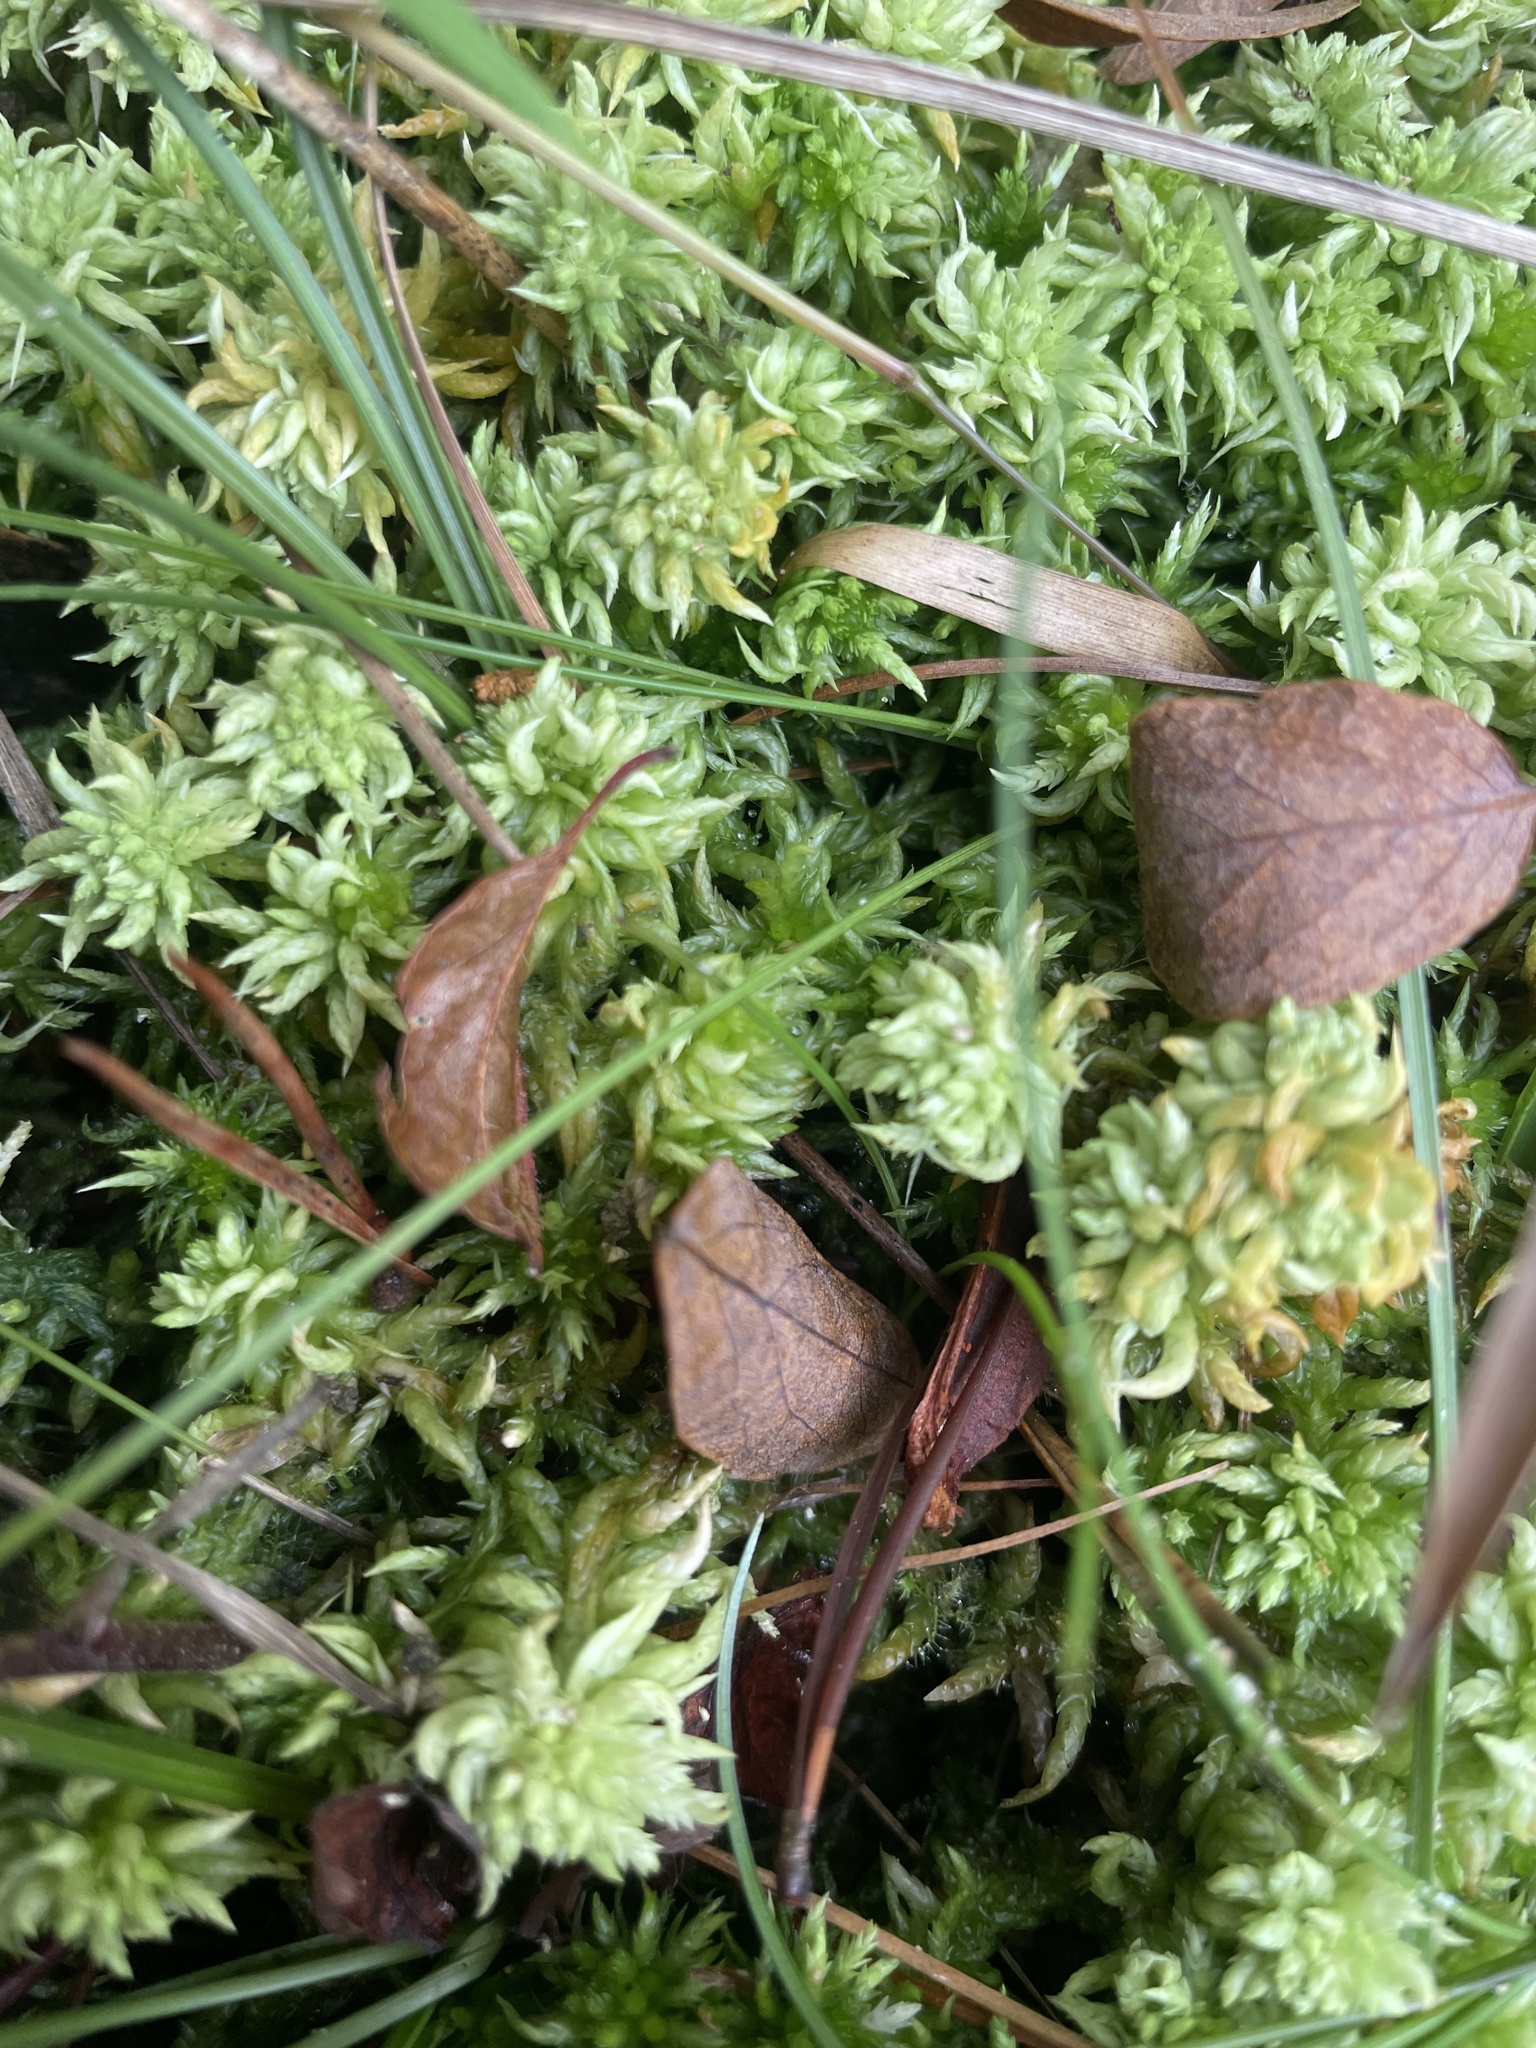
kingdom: Plantae
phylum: Bryophyta
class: Sphagnopsida
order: Sphagnales
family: Sphagnaceae
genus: Sphagnum
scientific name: Sphagnum lescurii
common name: Lesquereux's peat moss
